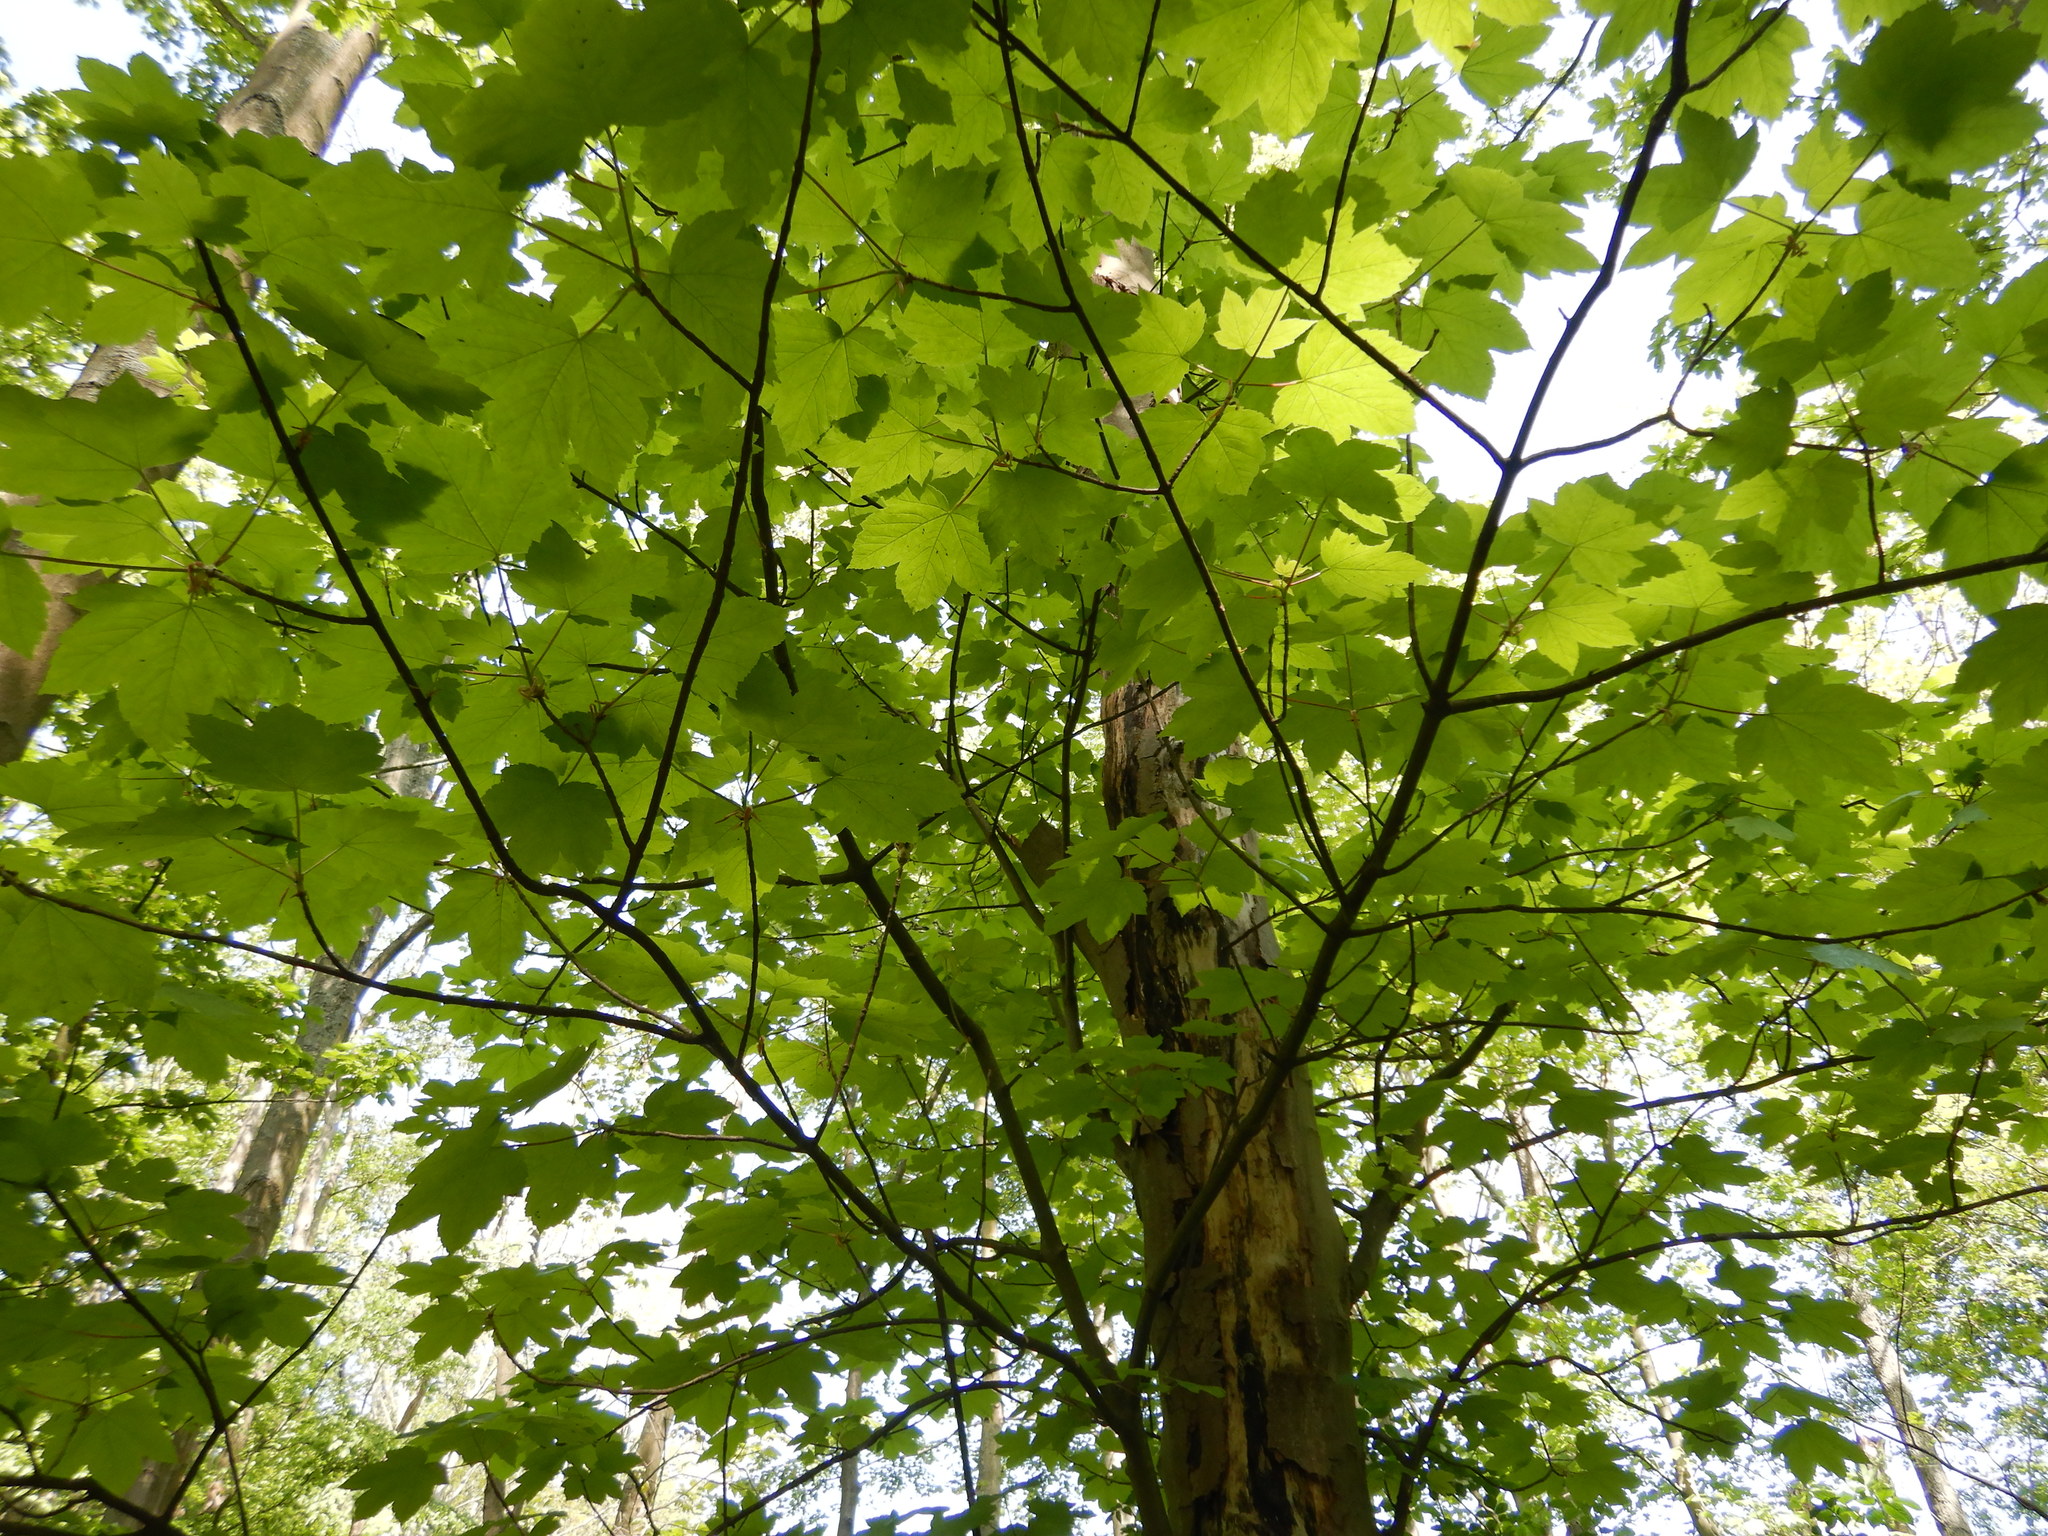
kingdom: Plantae
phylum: Tracheophyta
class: Magnoliopsida
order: Sapindales
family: Sapindaceae
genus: Acer
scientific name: Acer pseudoplatanus
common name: Sycamore
